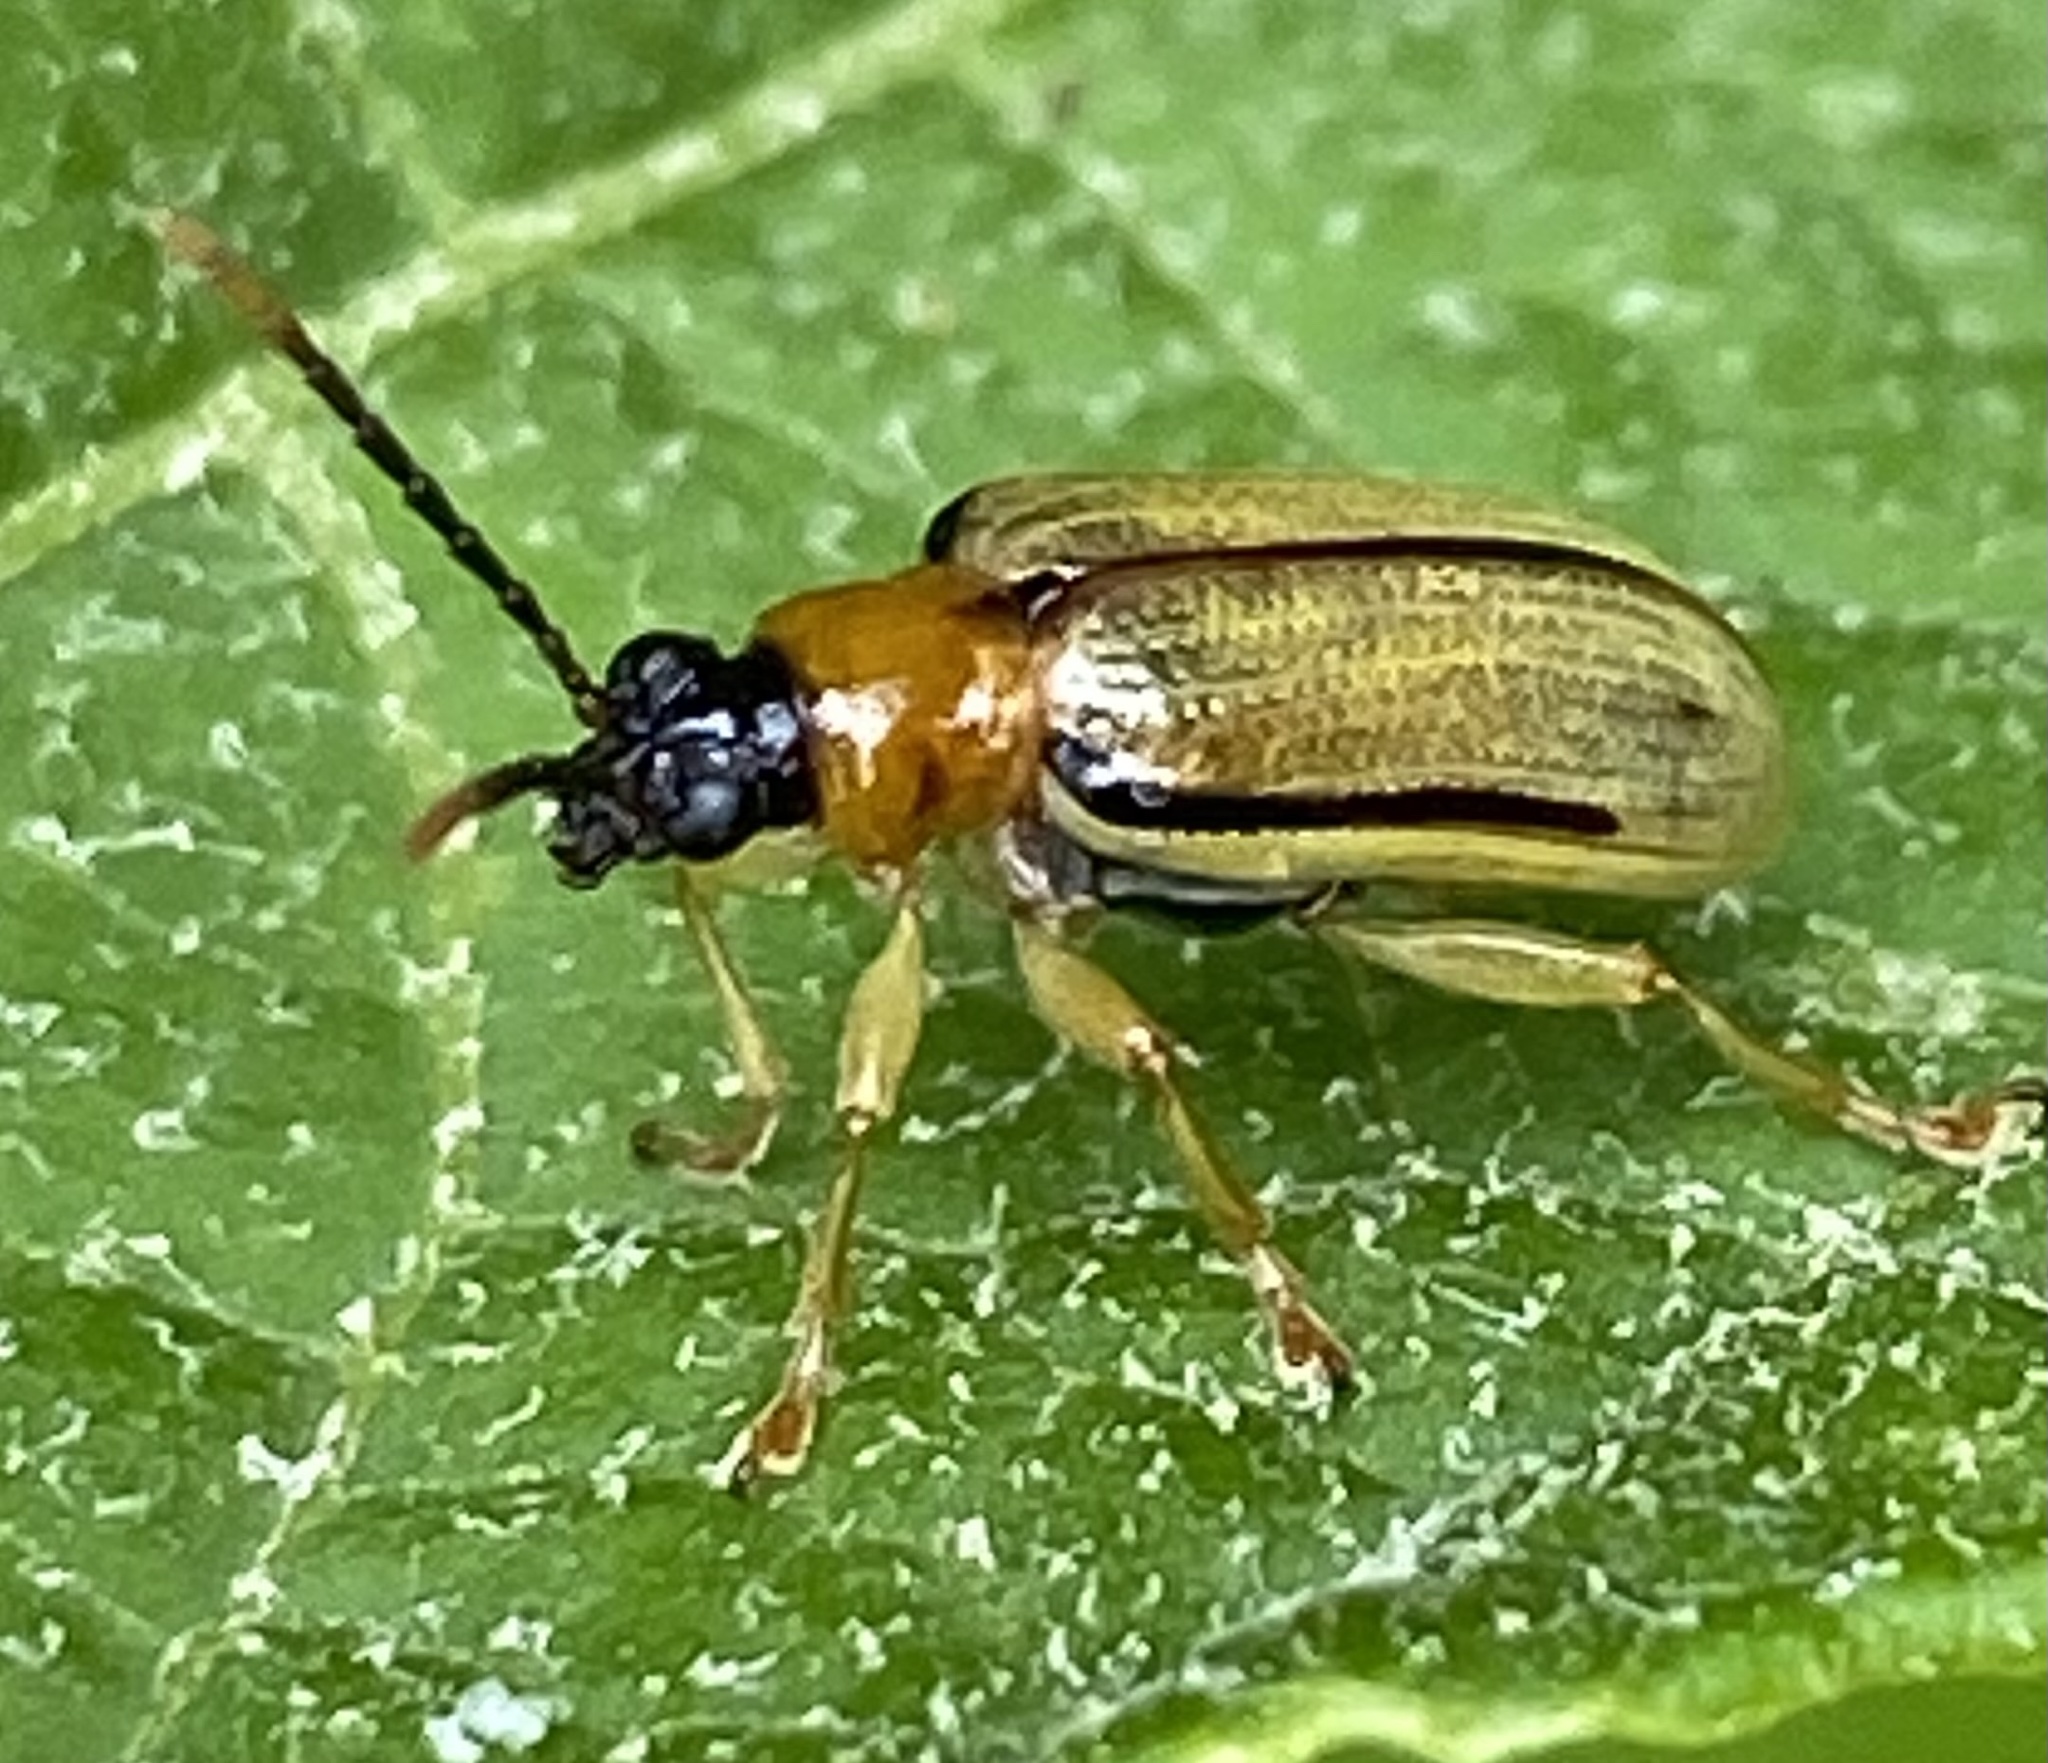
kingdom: Animalia
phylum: Arthropoda
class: Insecta
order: Coleoptera
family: Chrysomelidae
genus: Lema
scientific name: Lema
